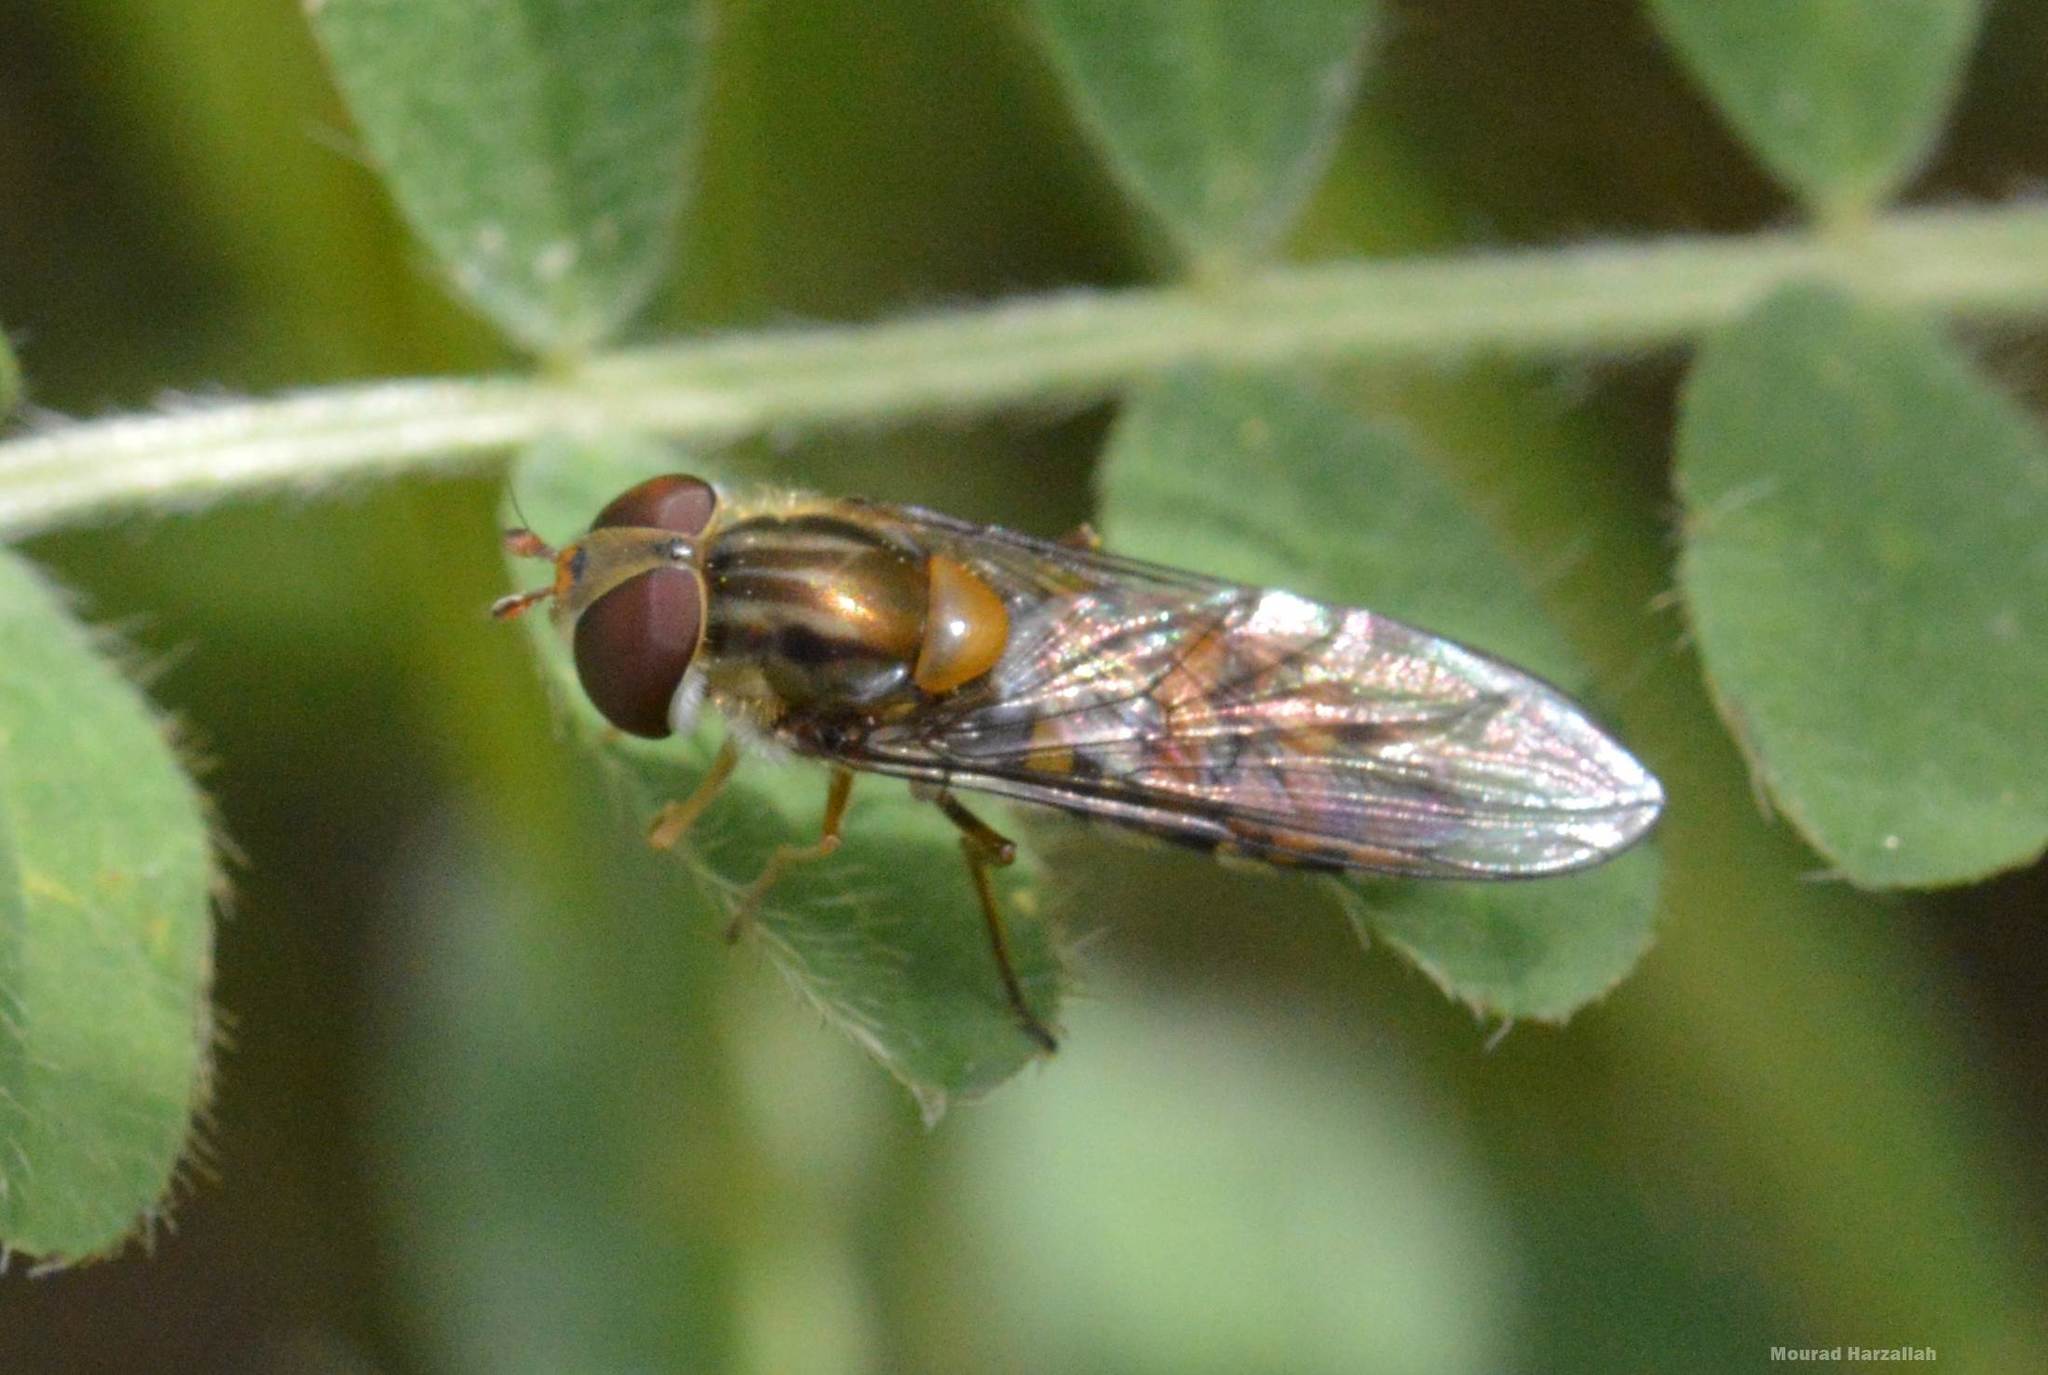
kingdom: Animalia
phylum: Arthropoda
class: Insecta
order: Diptera
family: Syrphidae
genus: Episyrphus
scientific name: Episyrphus balteatus
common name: Marmalade hoverfly
